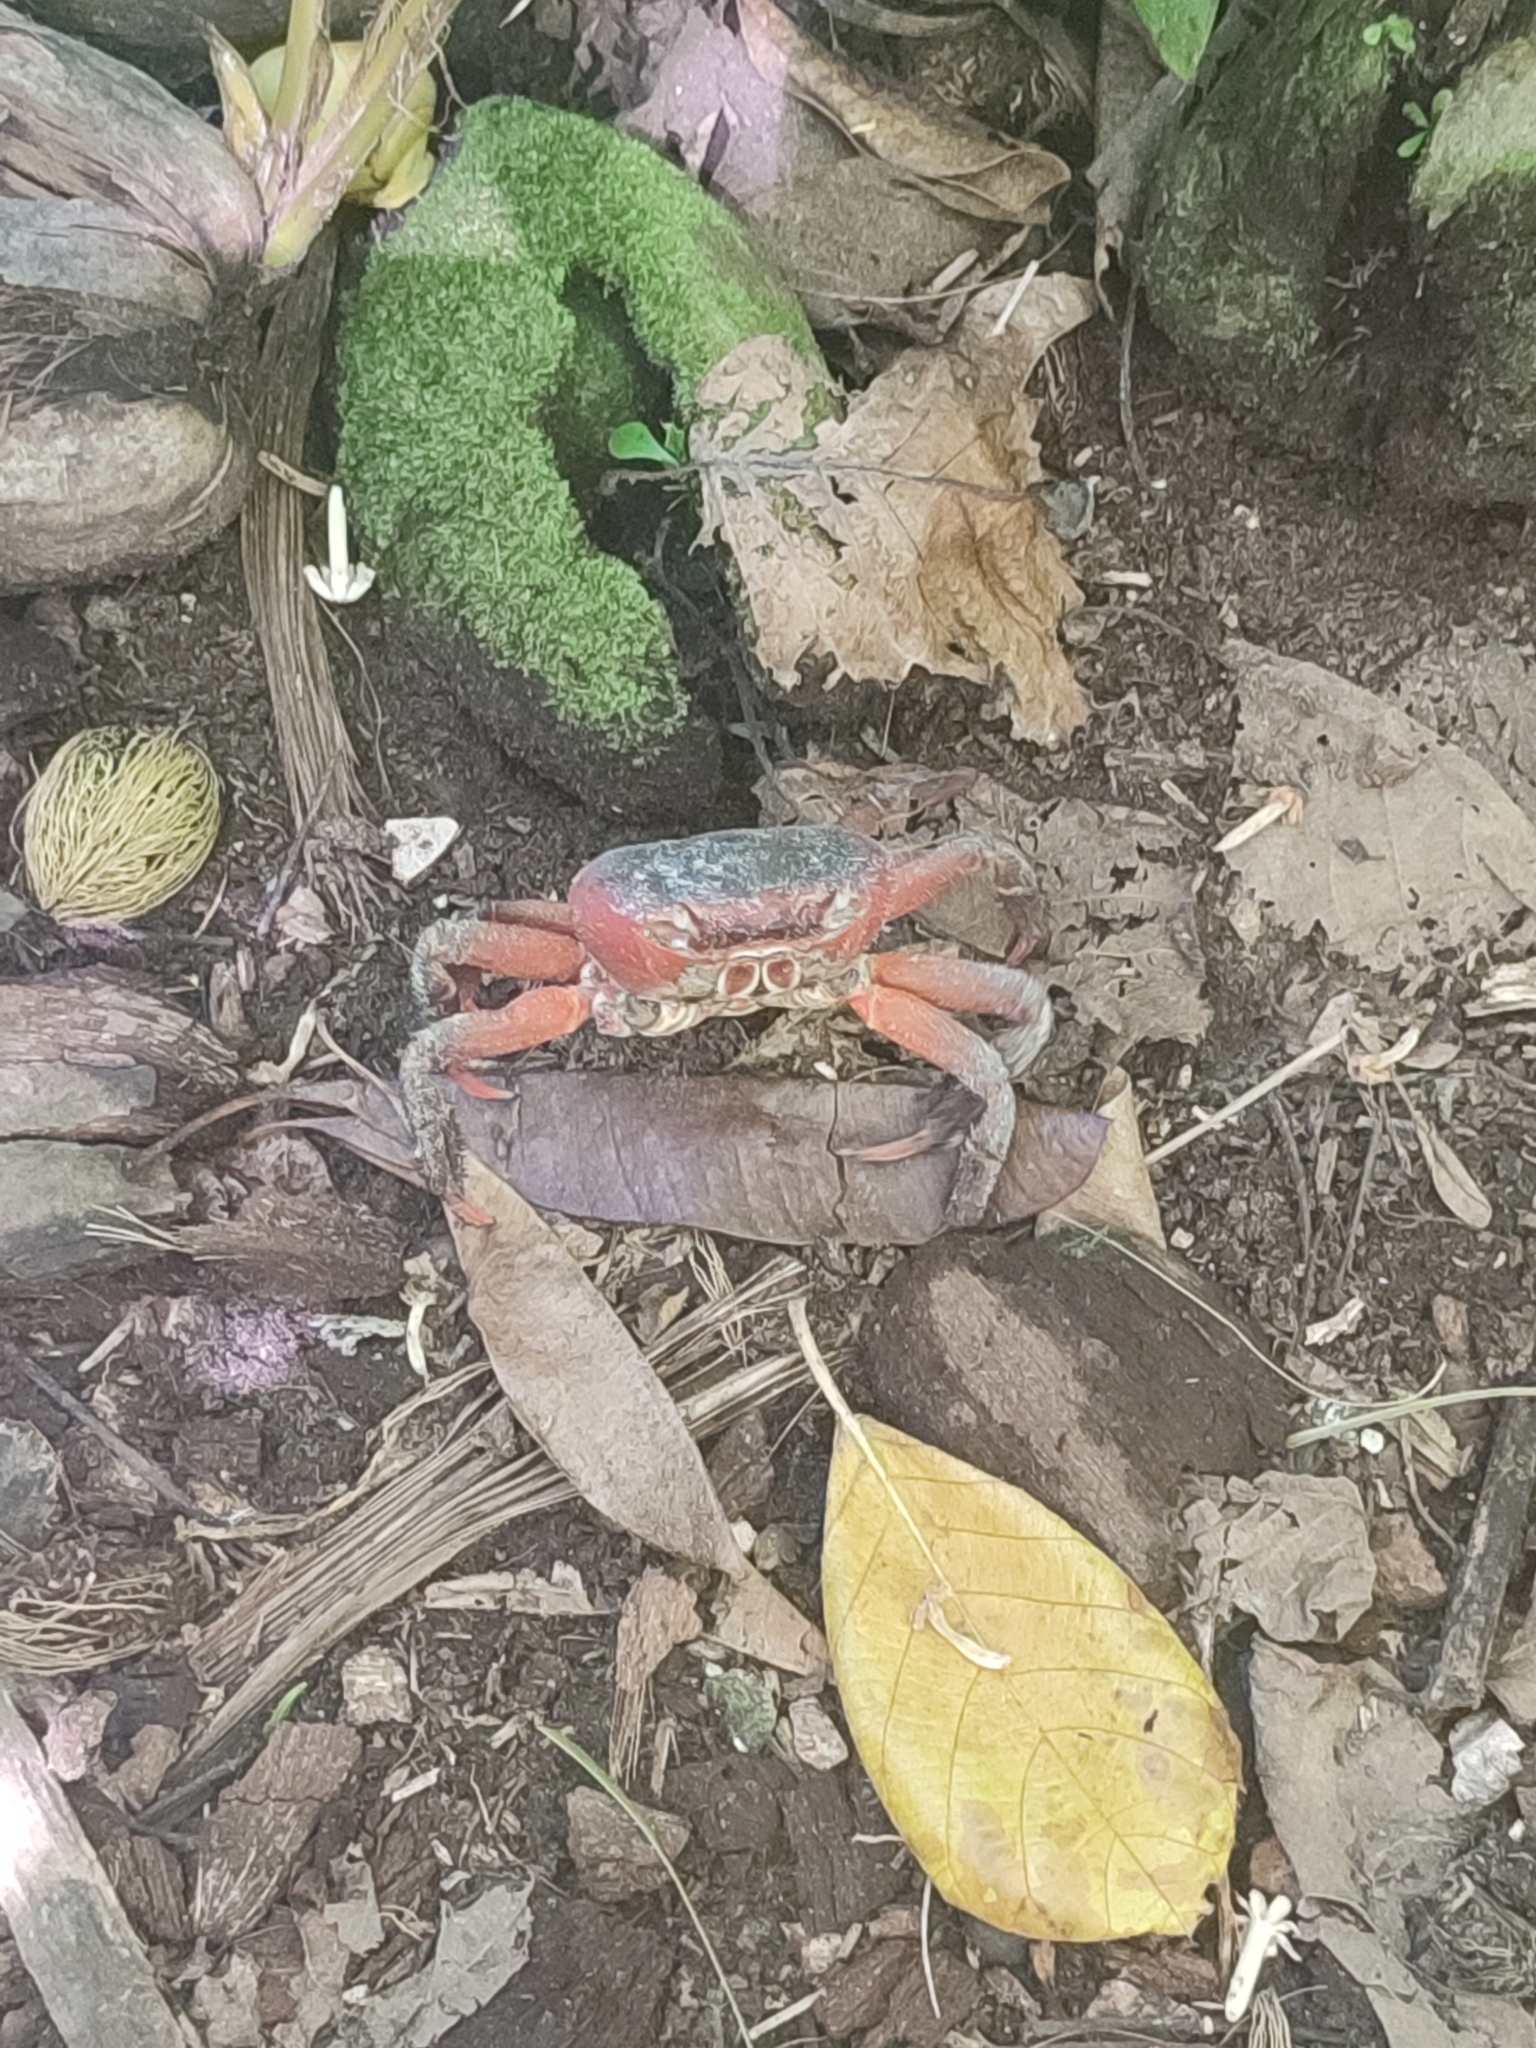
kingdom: Animalia
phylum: Arthropoda
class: Malacostraca
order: Decapoda
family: Gecarcinidae
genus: Cardisoma
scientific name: Cardisoma carnifex
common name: Brown land crab
